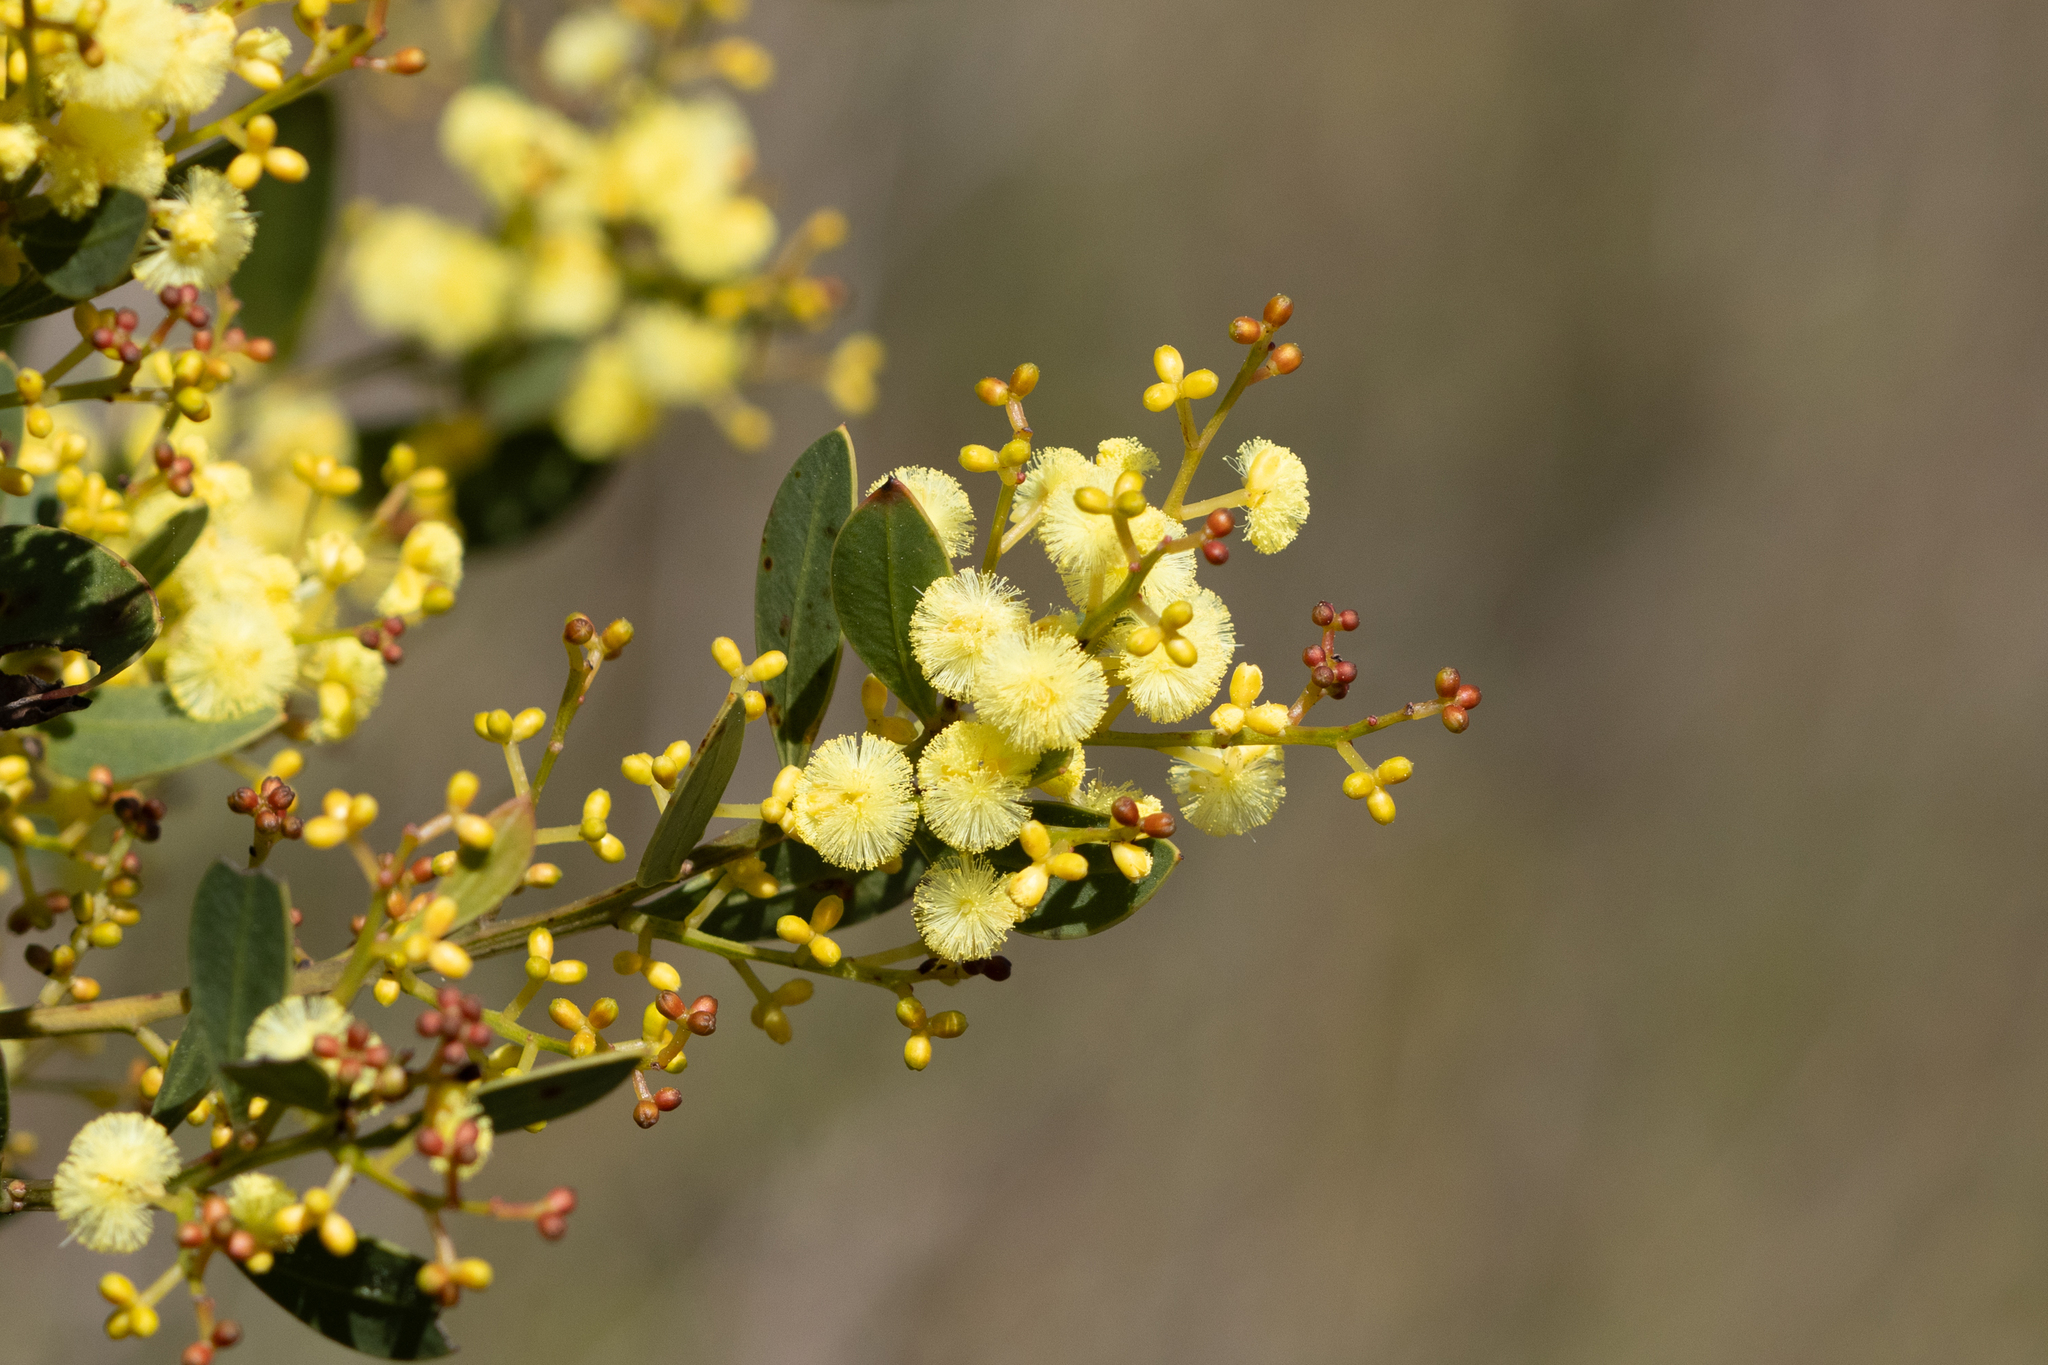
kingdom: Plantae
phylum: Tracheophyta
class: Magnoliopsida
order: Fabales
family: Fabaceae
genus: Acacia
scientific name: Acacia myrtifolia
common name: Myrtle wattle
